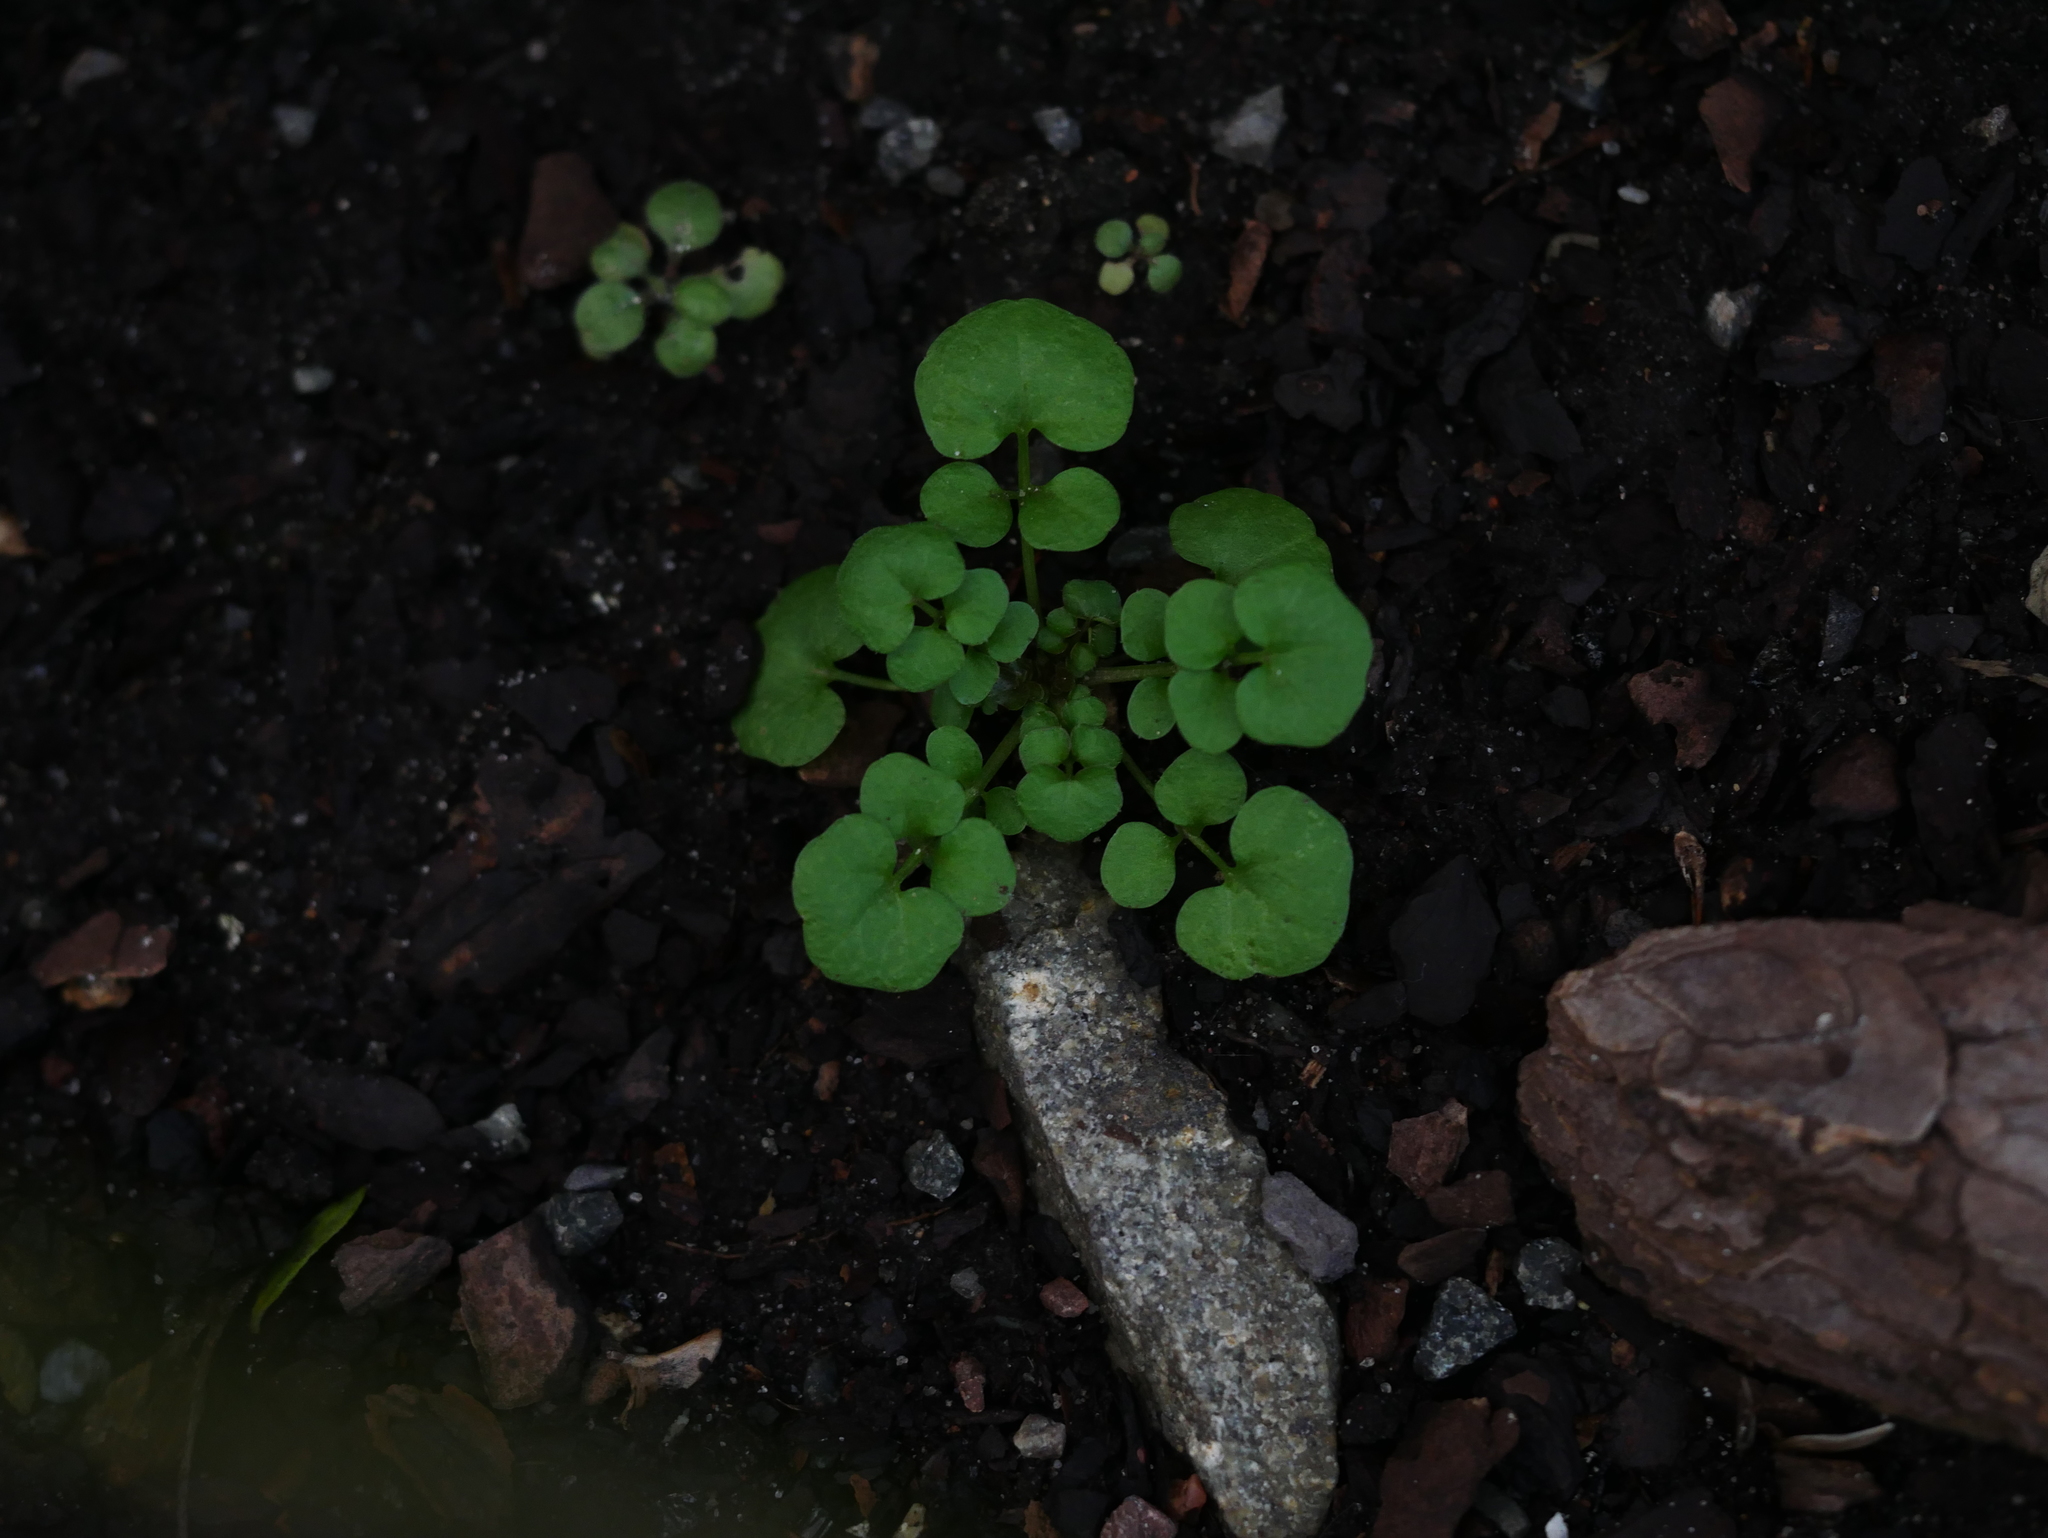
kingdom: Plantae
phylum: Tracheophyta
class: Magnoliopsida
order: Brassicales
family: Brassicaceae
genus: Cardamine
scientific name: Cardamine hirsuta
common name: Hairy bittercress
